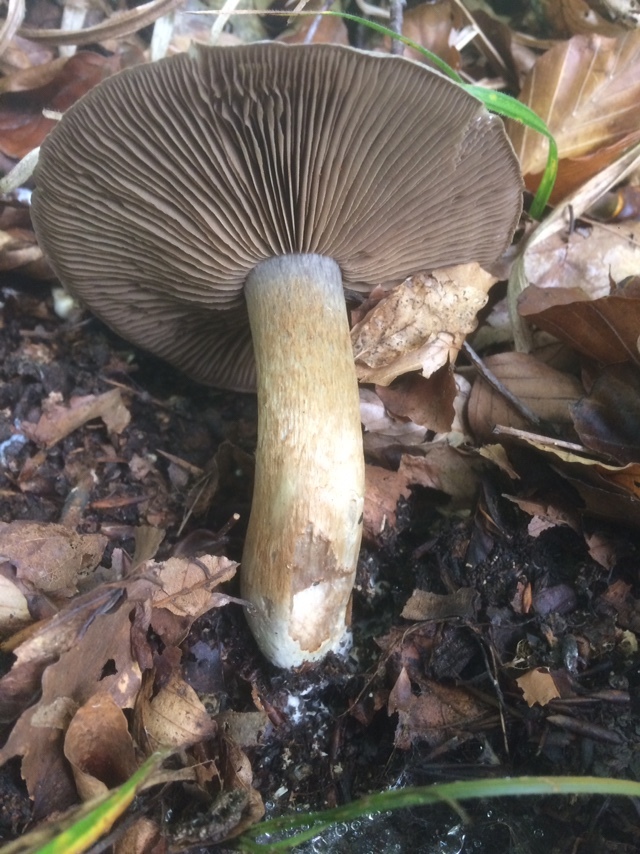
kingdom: Fungi
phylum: Basidiomycota
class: Agaricomycetes
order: Agaricales
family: Cortinariaceae
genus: Cortinarius
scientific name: Cortinarius infractus
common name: Bitter webcap
